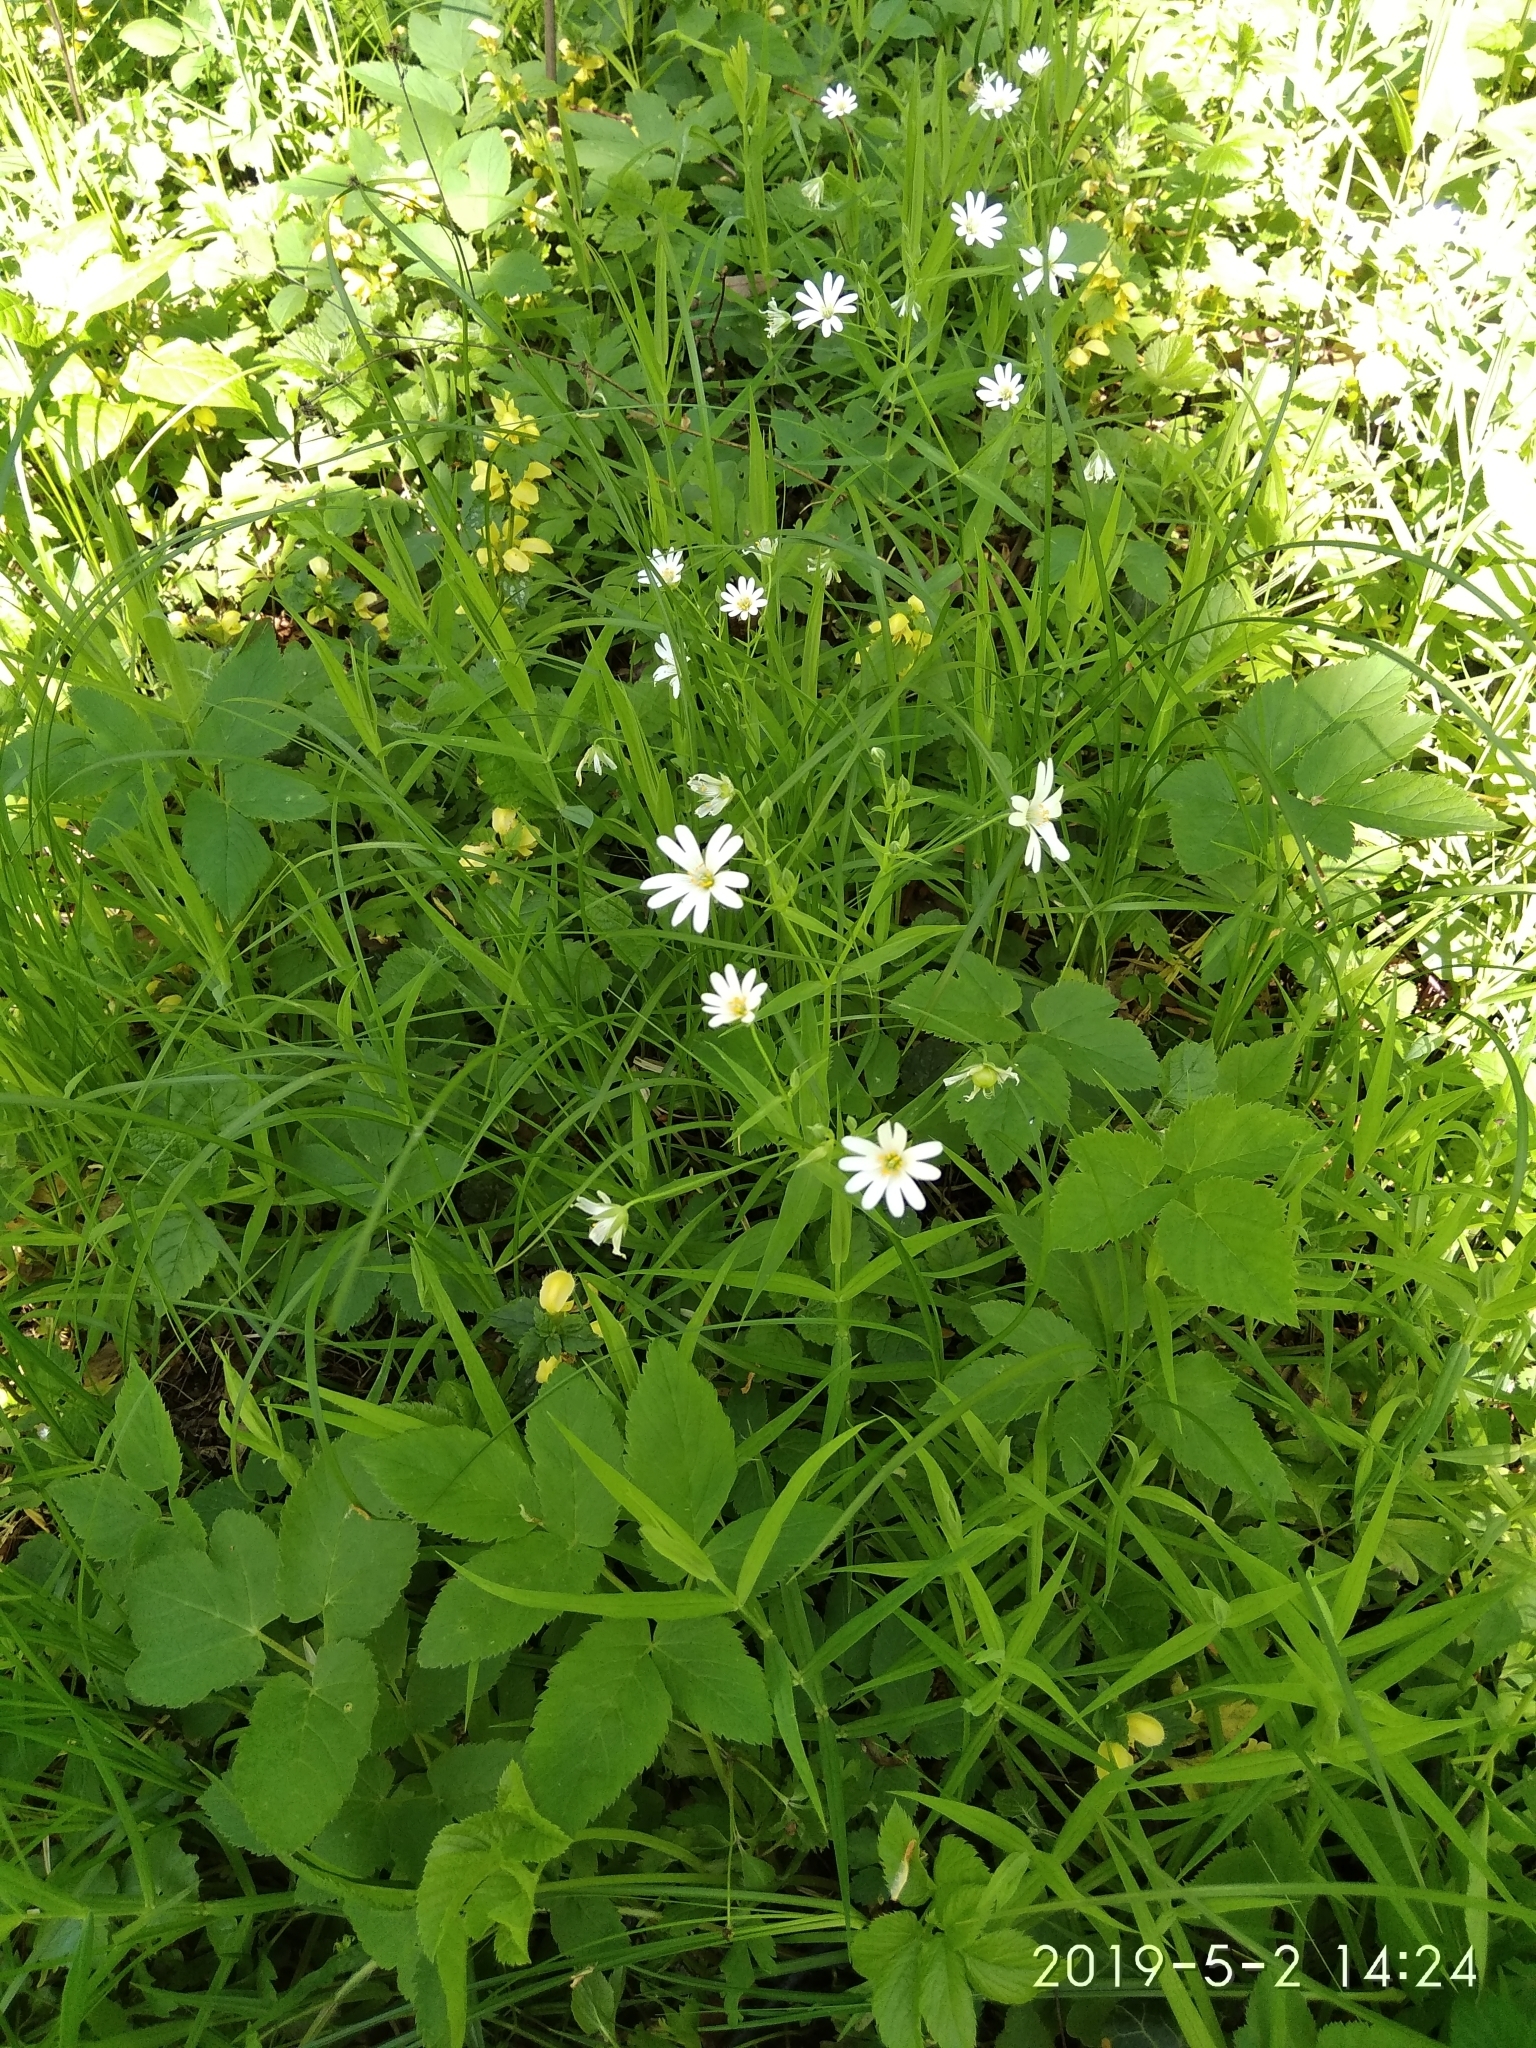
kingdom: Plantae
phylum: Tracheophyta
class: Magnoliopsida
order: Caryophyllales
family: Caryophyllaceae
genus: Rabelera
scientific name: Rabelera holostea
